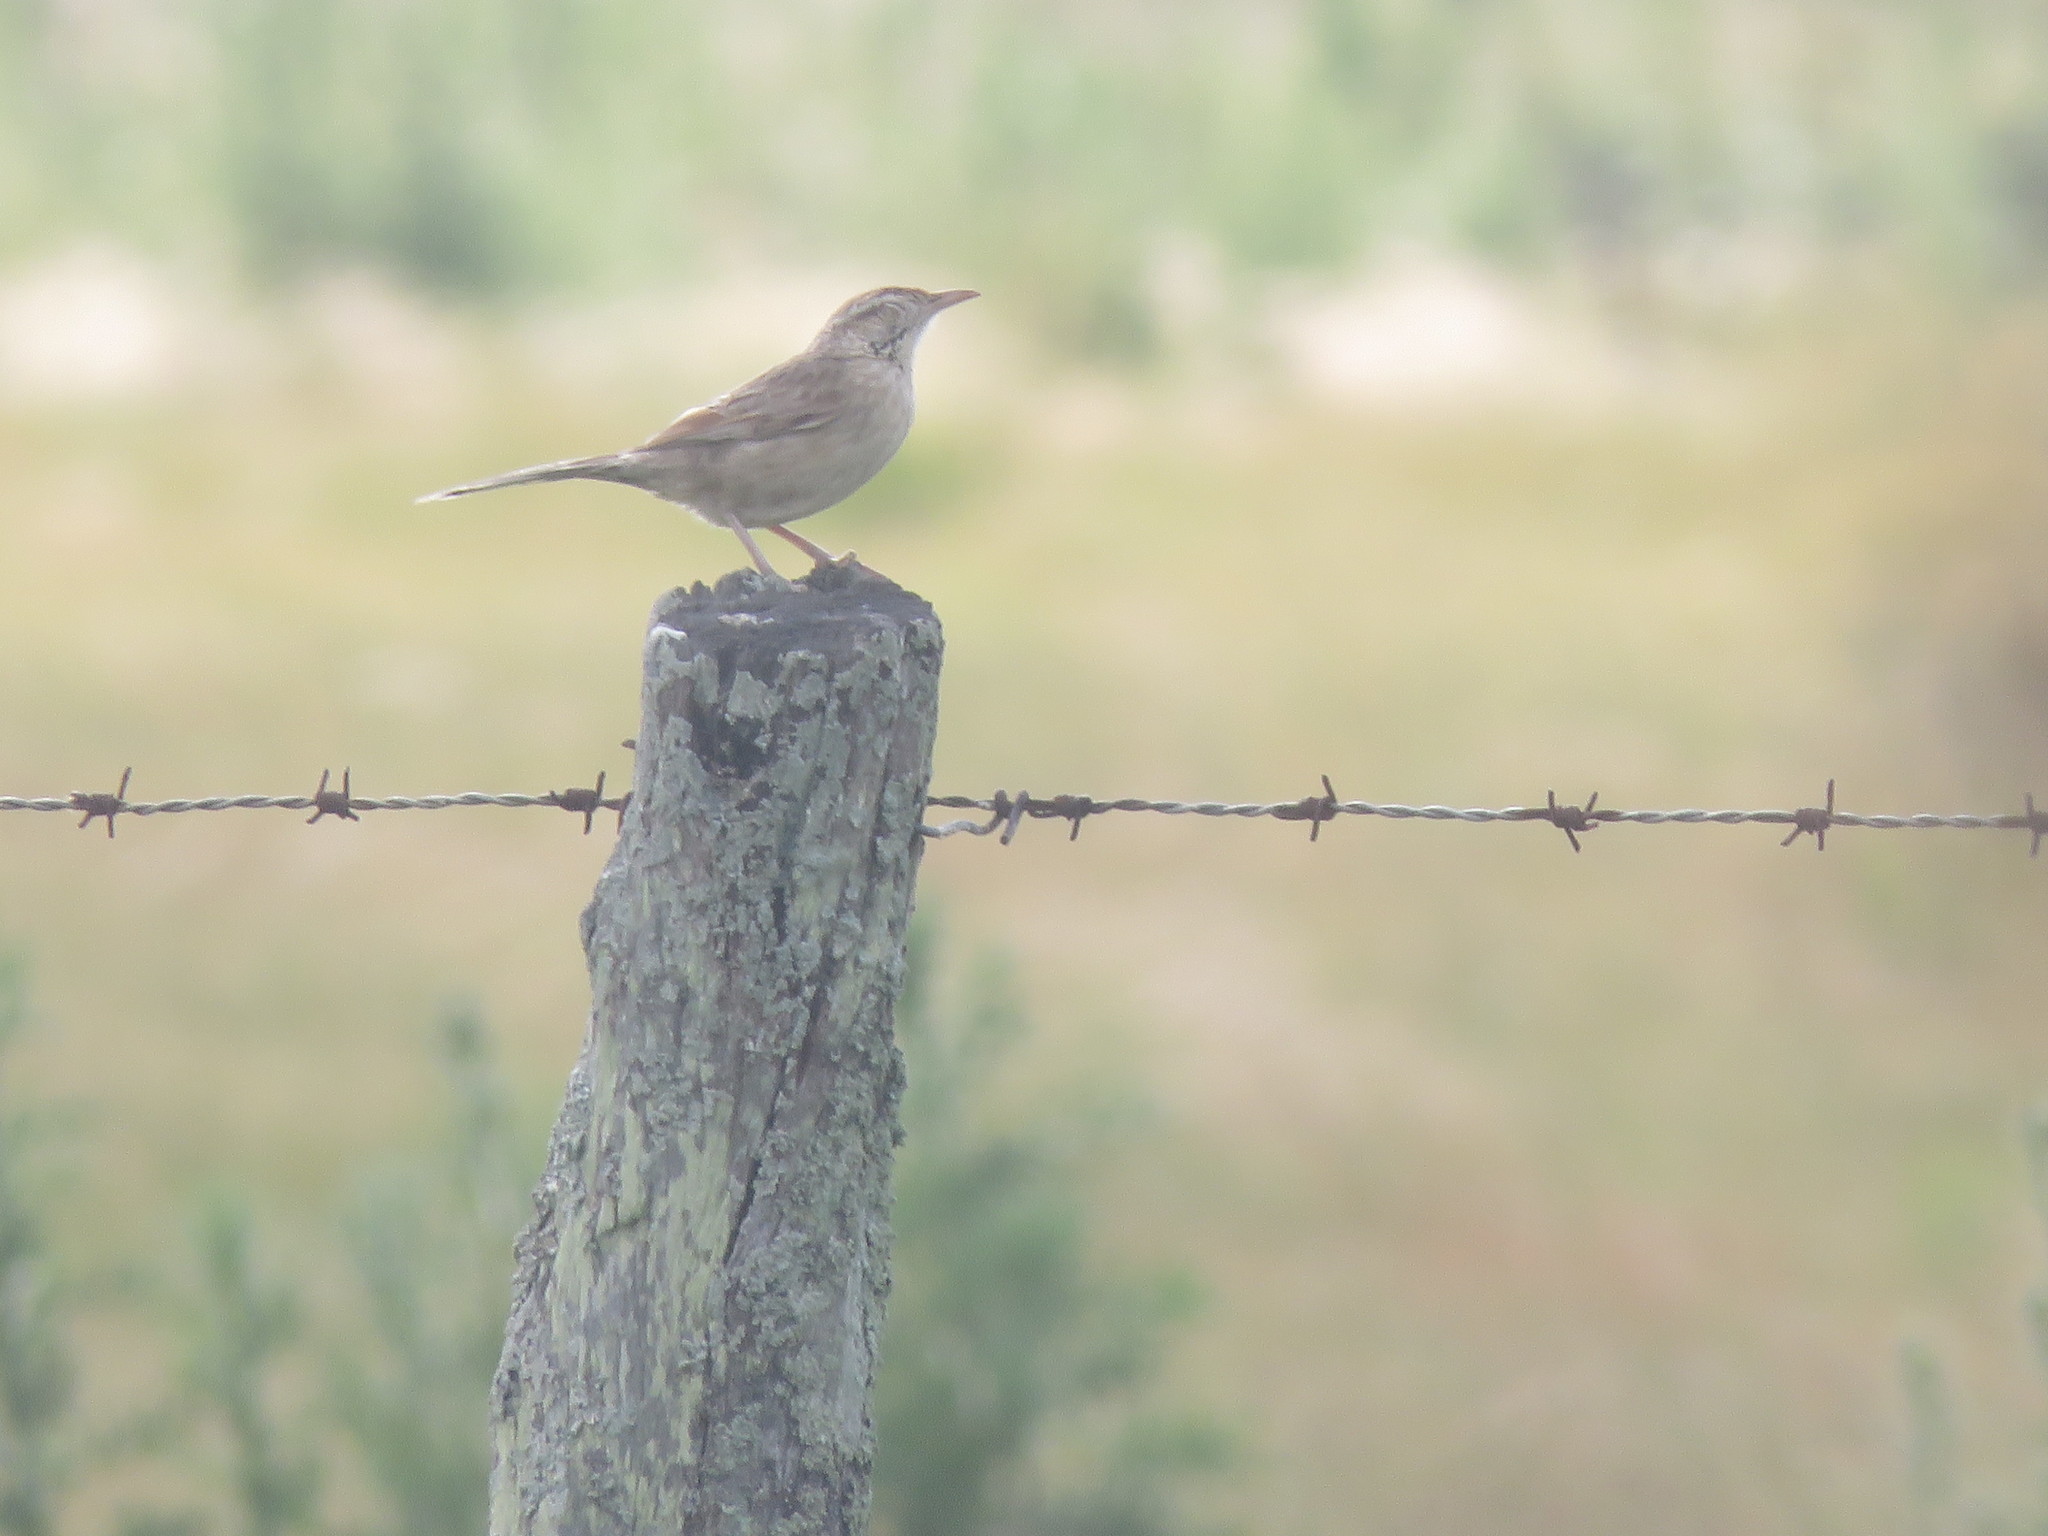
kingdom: Animalia
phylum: Chordata
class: Aves
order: Passeriformes
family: Furnariidae
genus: Anumbius
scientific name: Anumbius annumbi
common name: Firewood-gatherer
